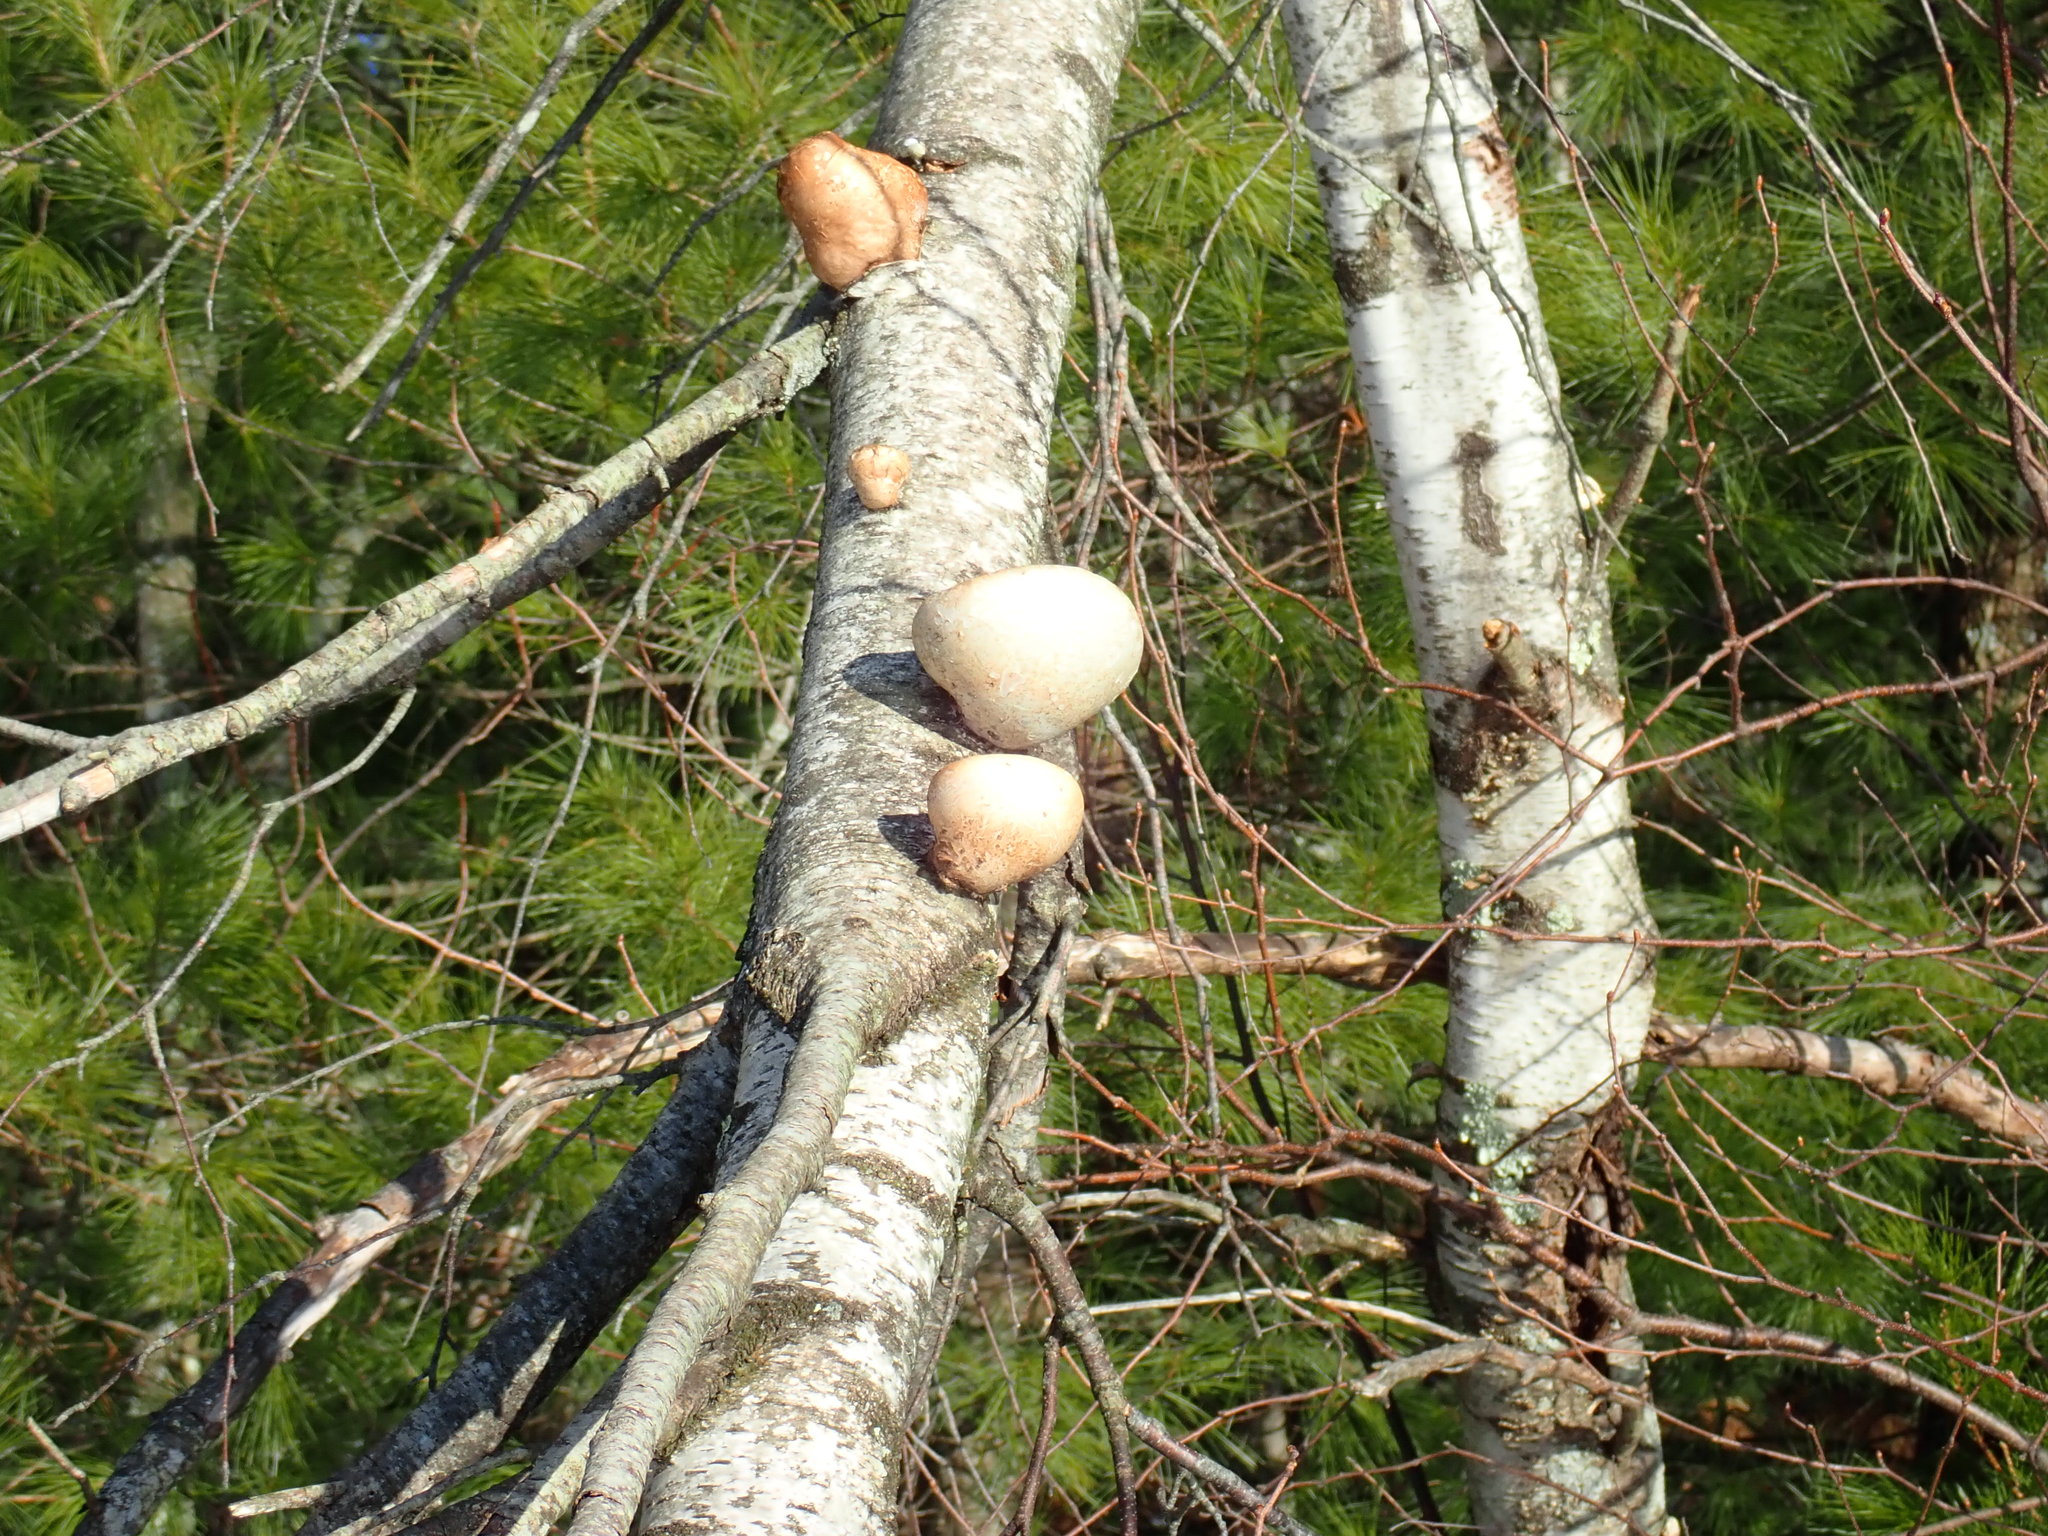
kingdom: Fungi
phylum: Basidiomycota
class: Agaricomycetes
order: Polyporales
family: Fomitopsidaceae
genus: Fomitopsis
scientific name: Fomitopsis betulina
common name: Birch polypore
